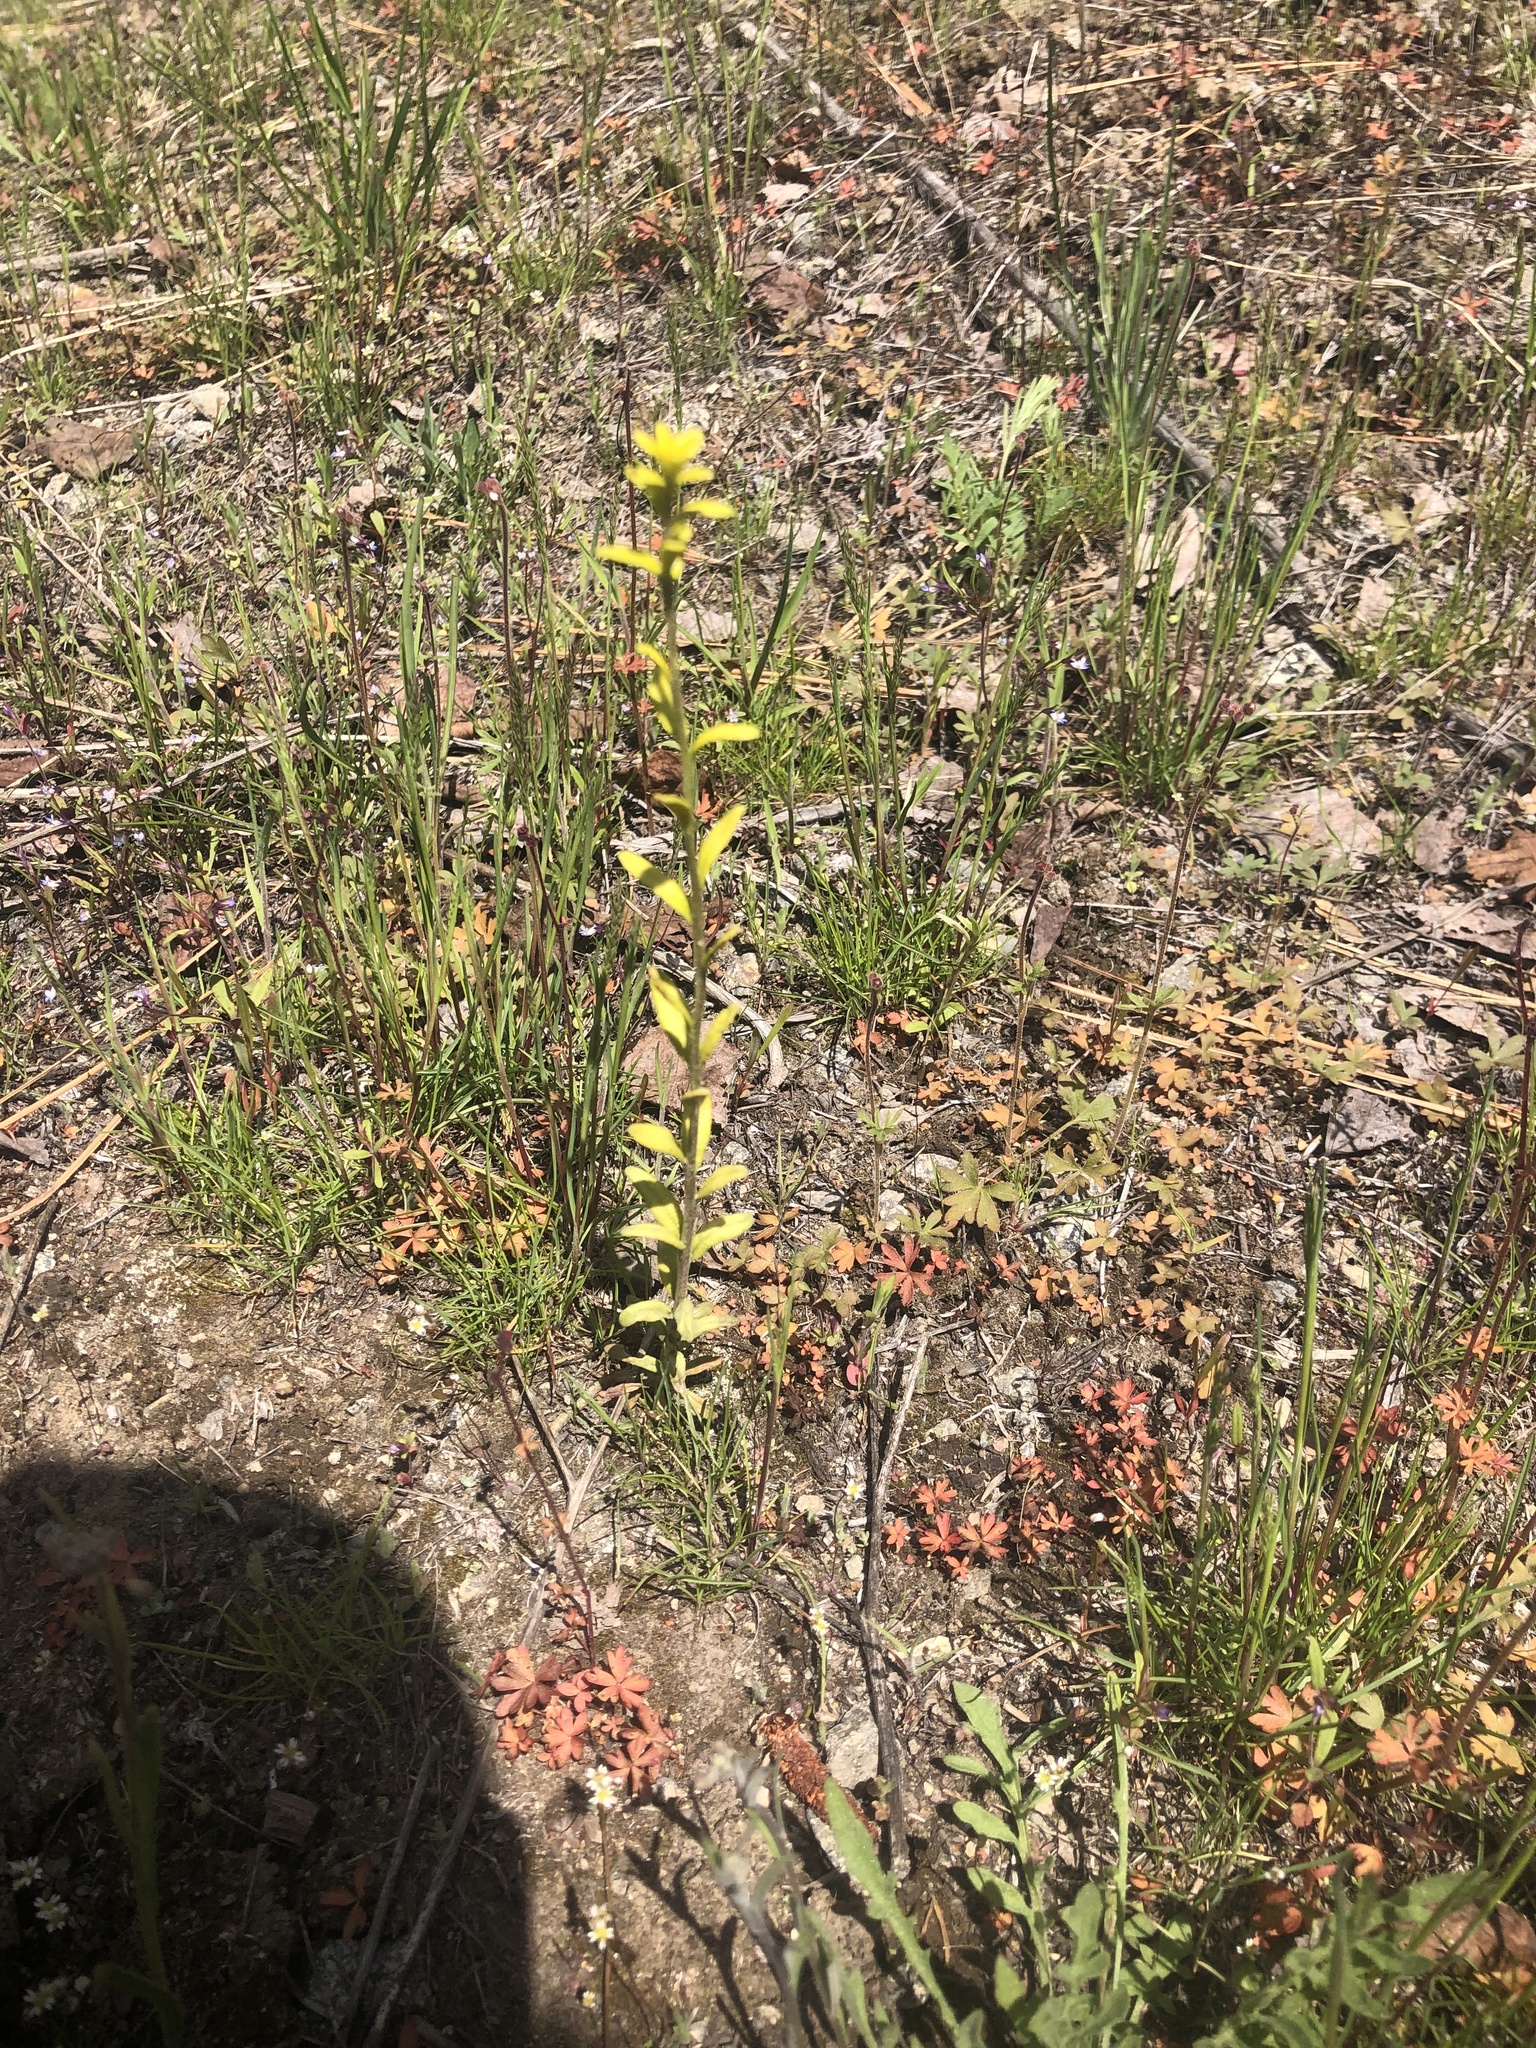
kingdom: Fungi
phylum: Basidiomycota
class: Pucciniomycetes
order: Pucciniales
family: Pucciniaceae
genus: Puccinia
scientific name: Puccinia monoica
